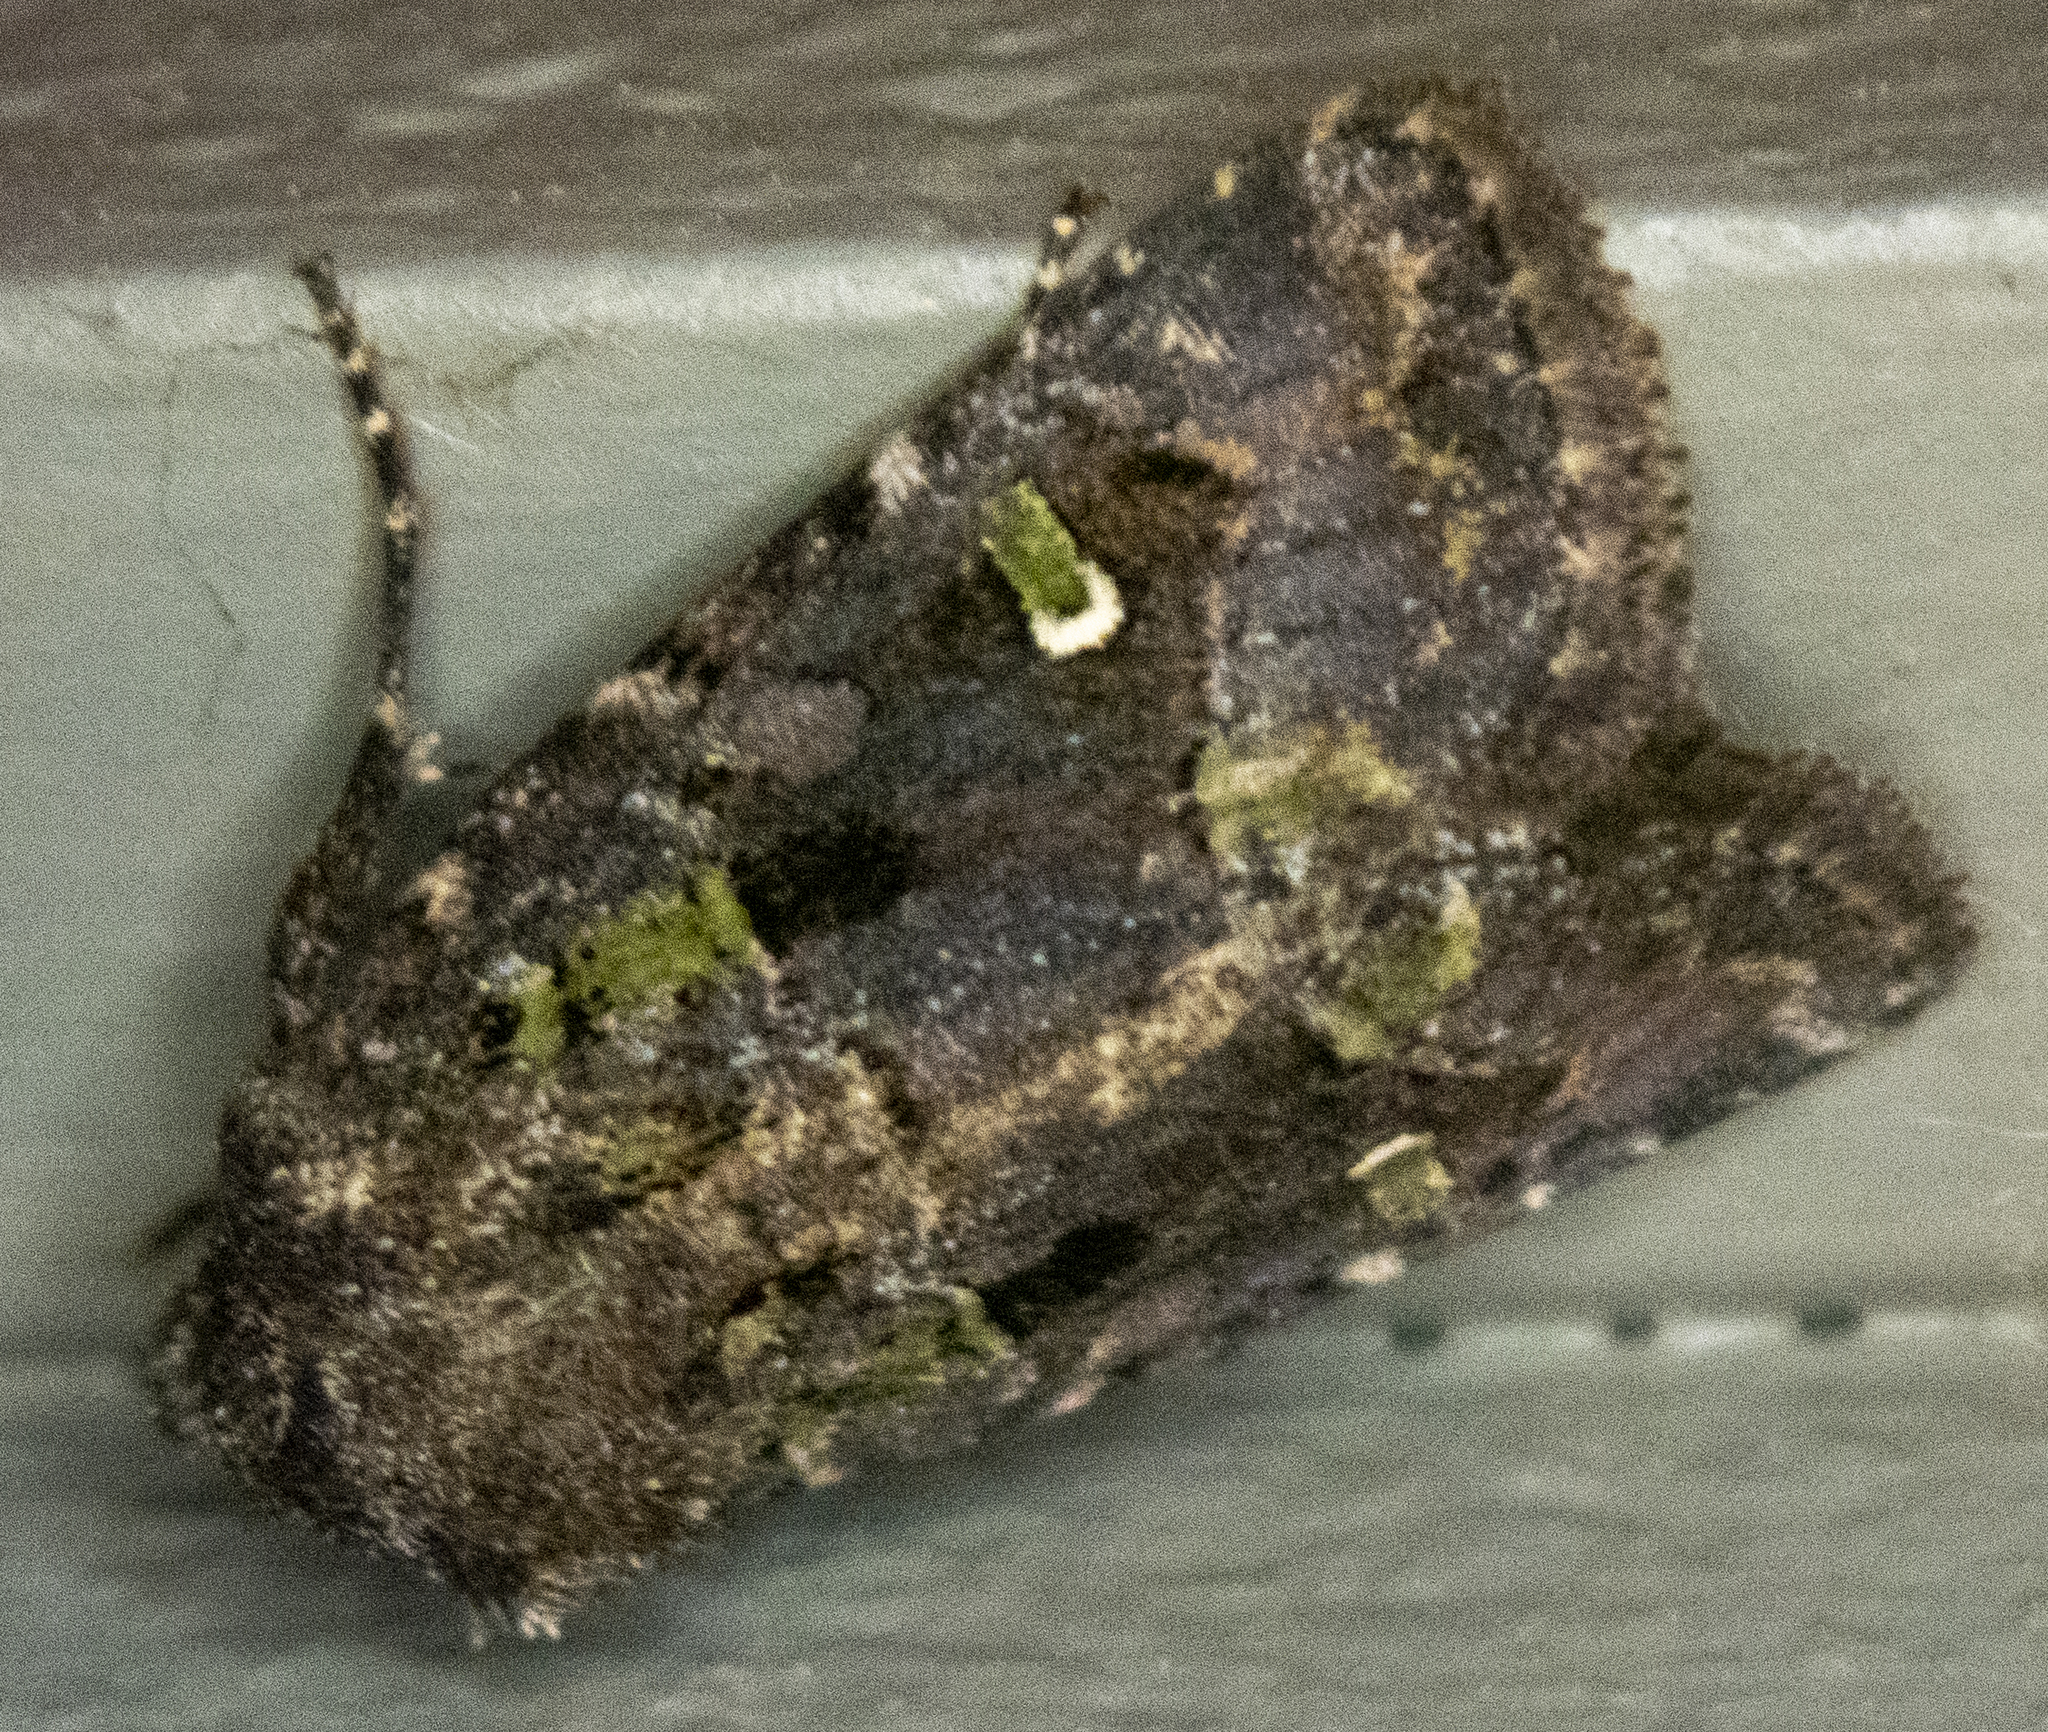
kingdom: Animalia
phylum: Arthropoda
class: Insecta
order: Lepidoptera
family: Noctuidae
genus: Lacinipolia
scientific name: Lacinipolia renigera
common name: Kidney-spotted minor
